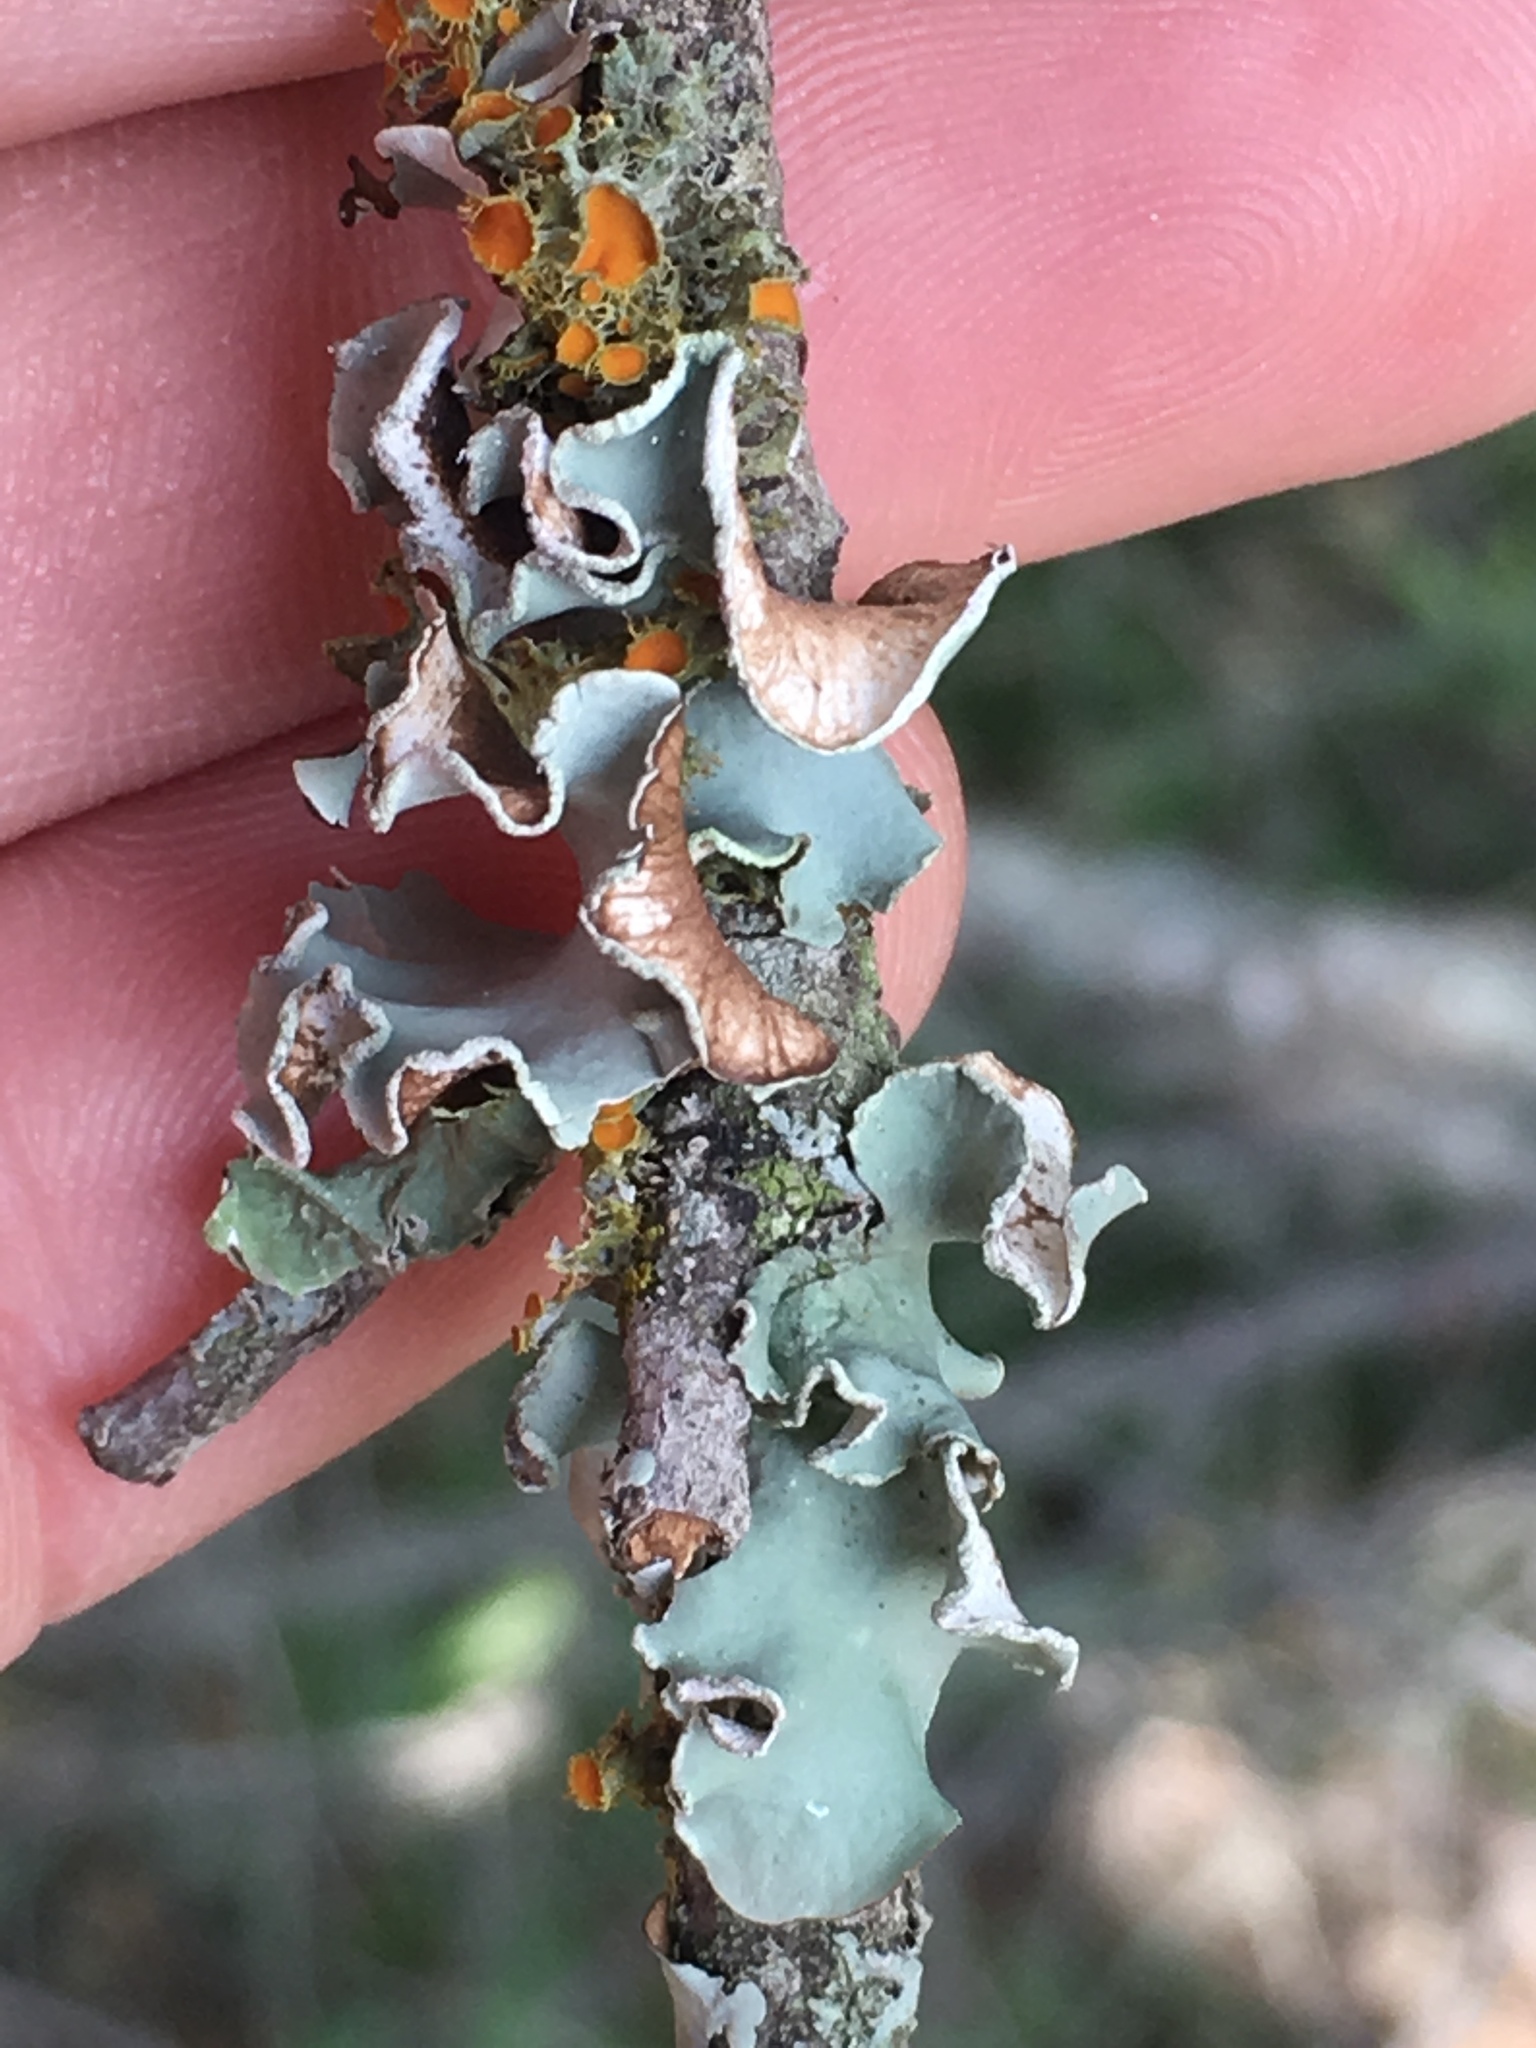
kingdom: Fungi
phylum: Ascomycota
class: Lecanoromycetes
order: Lecanorales
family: Parmeliaceae
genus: Parmotrema
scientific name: Parmotrema austrosinense
